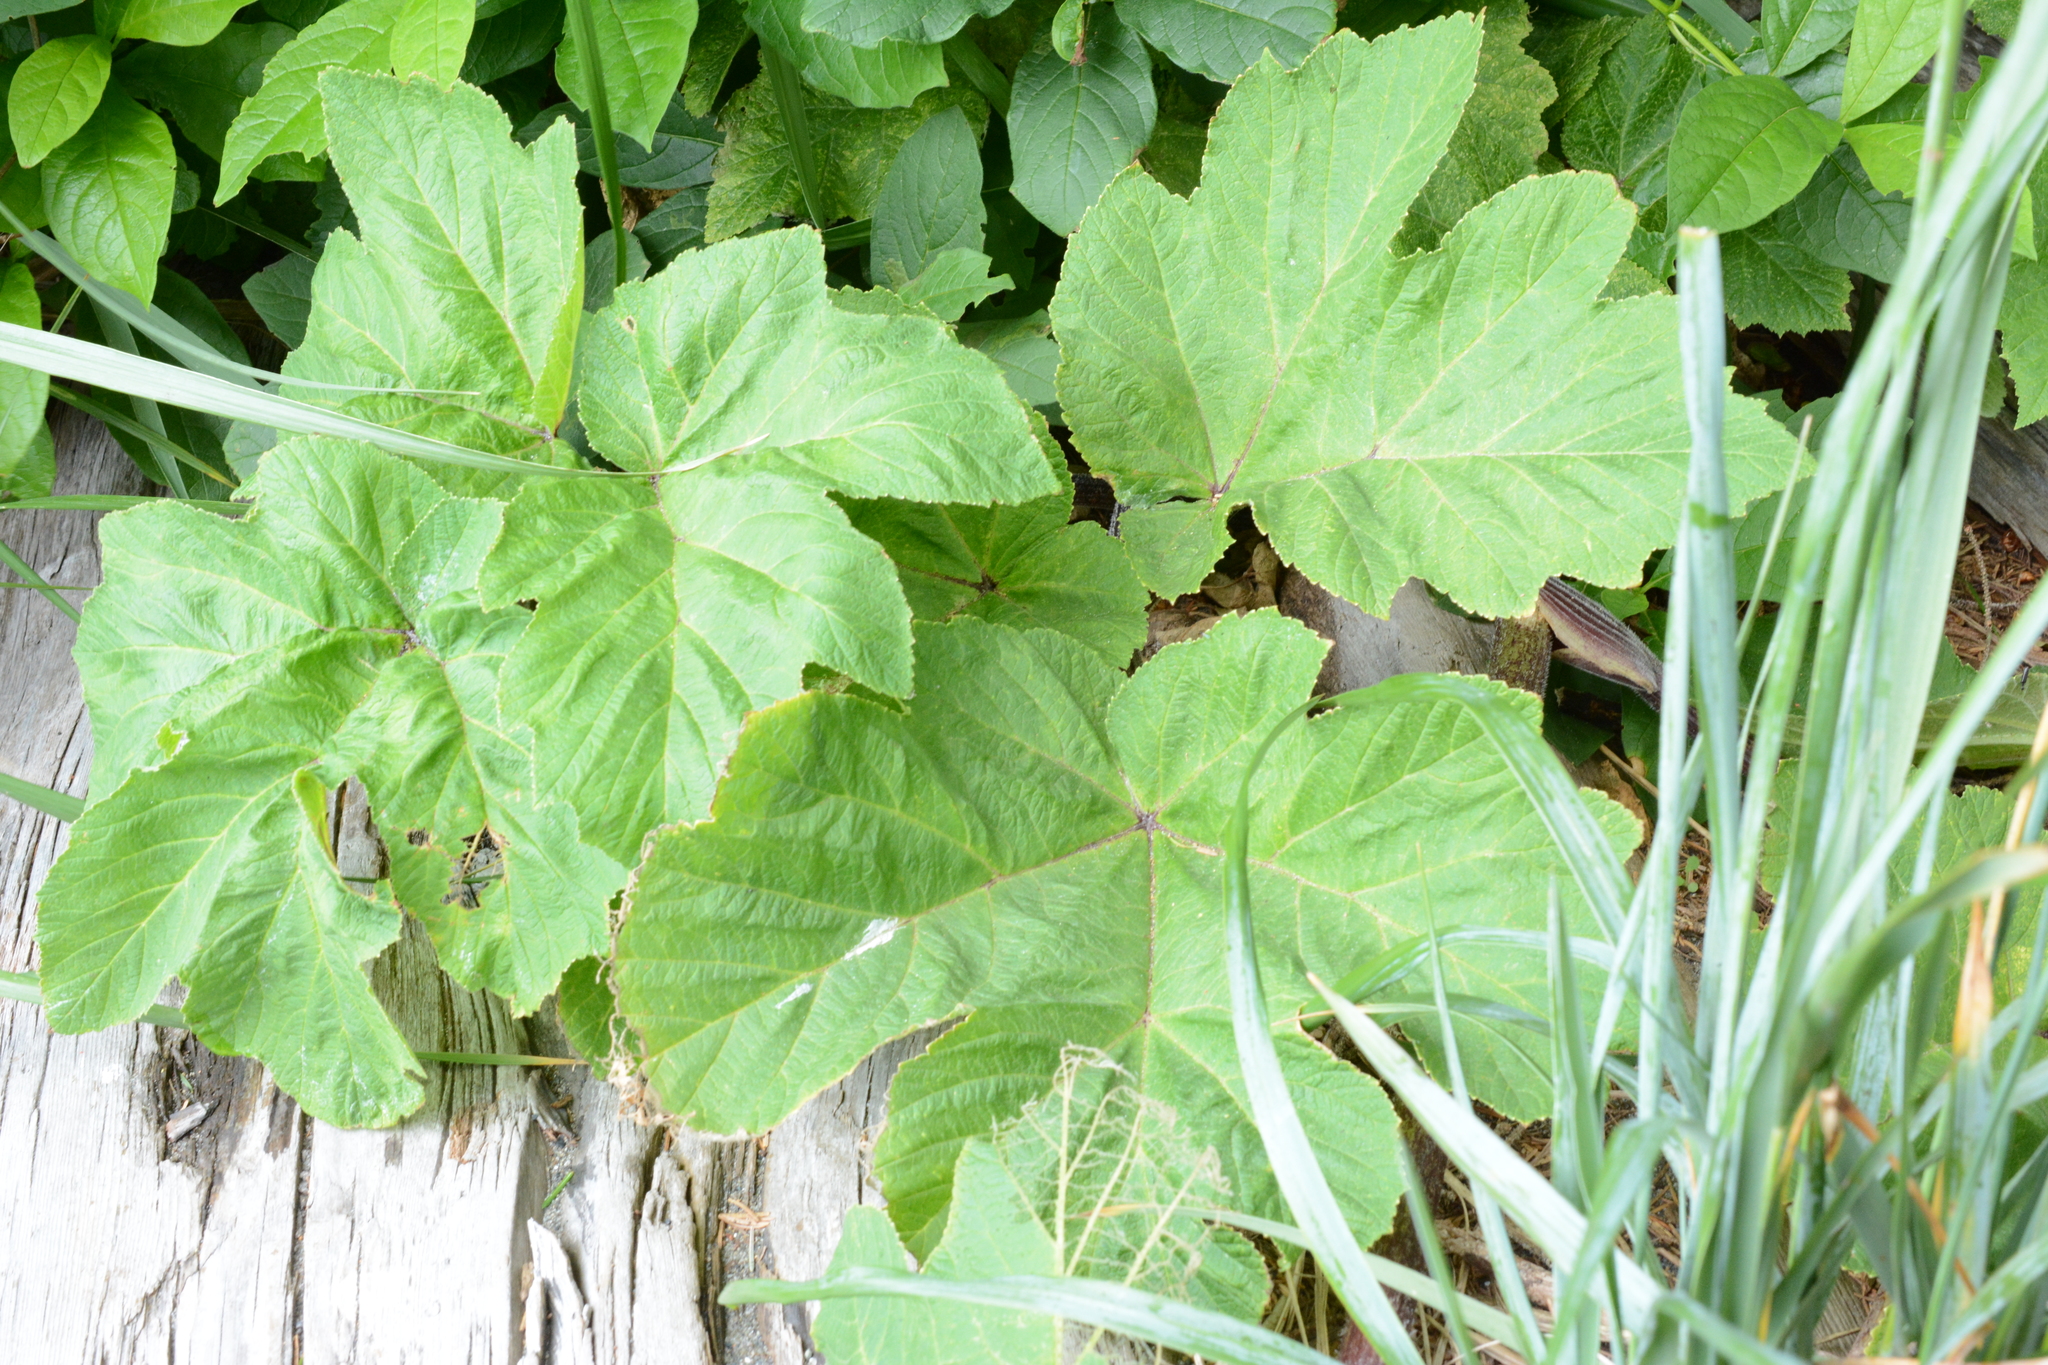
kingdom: Plantae
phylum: Tracheophyta
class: Magnoliopsida
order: Apiales
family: Apiaceae
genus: Heracleum
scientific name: Heracleum maximum
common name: American cow parsnip
